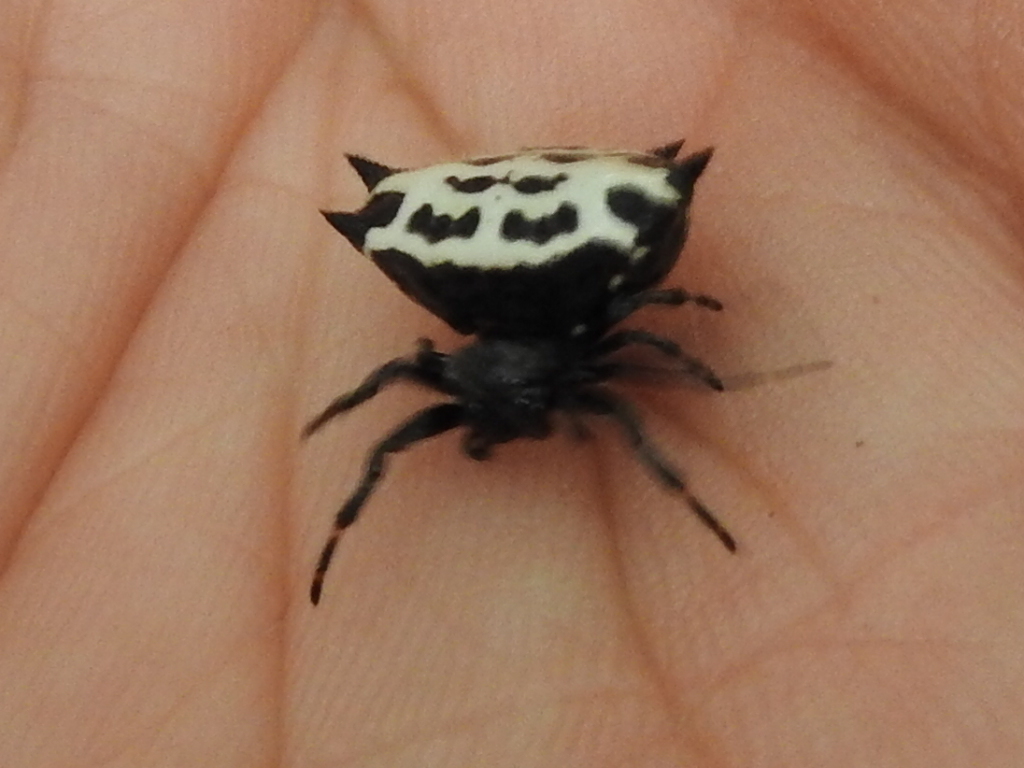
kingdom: Animalia
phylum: Arthropoda
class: Arachnida
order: Araneae
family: Araneidae
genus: Gasteracantha
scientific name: Gasteracantha cancriformis
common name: Orb weavers
